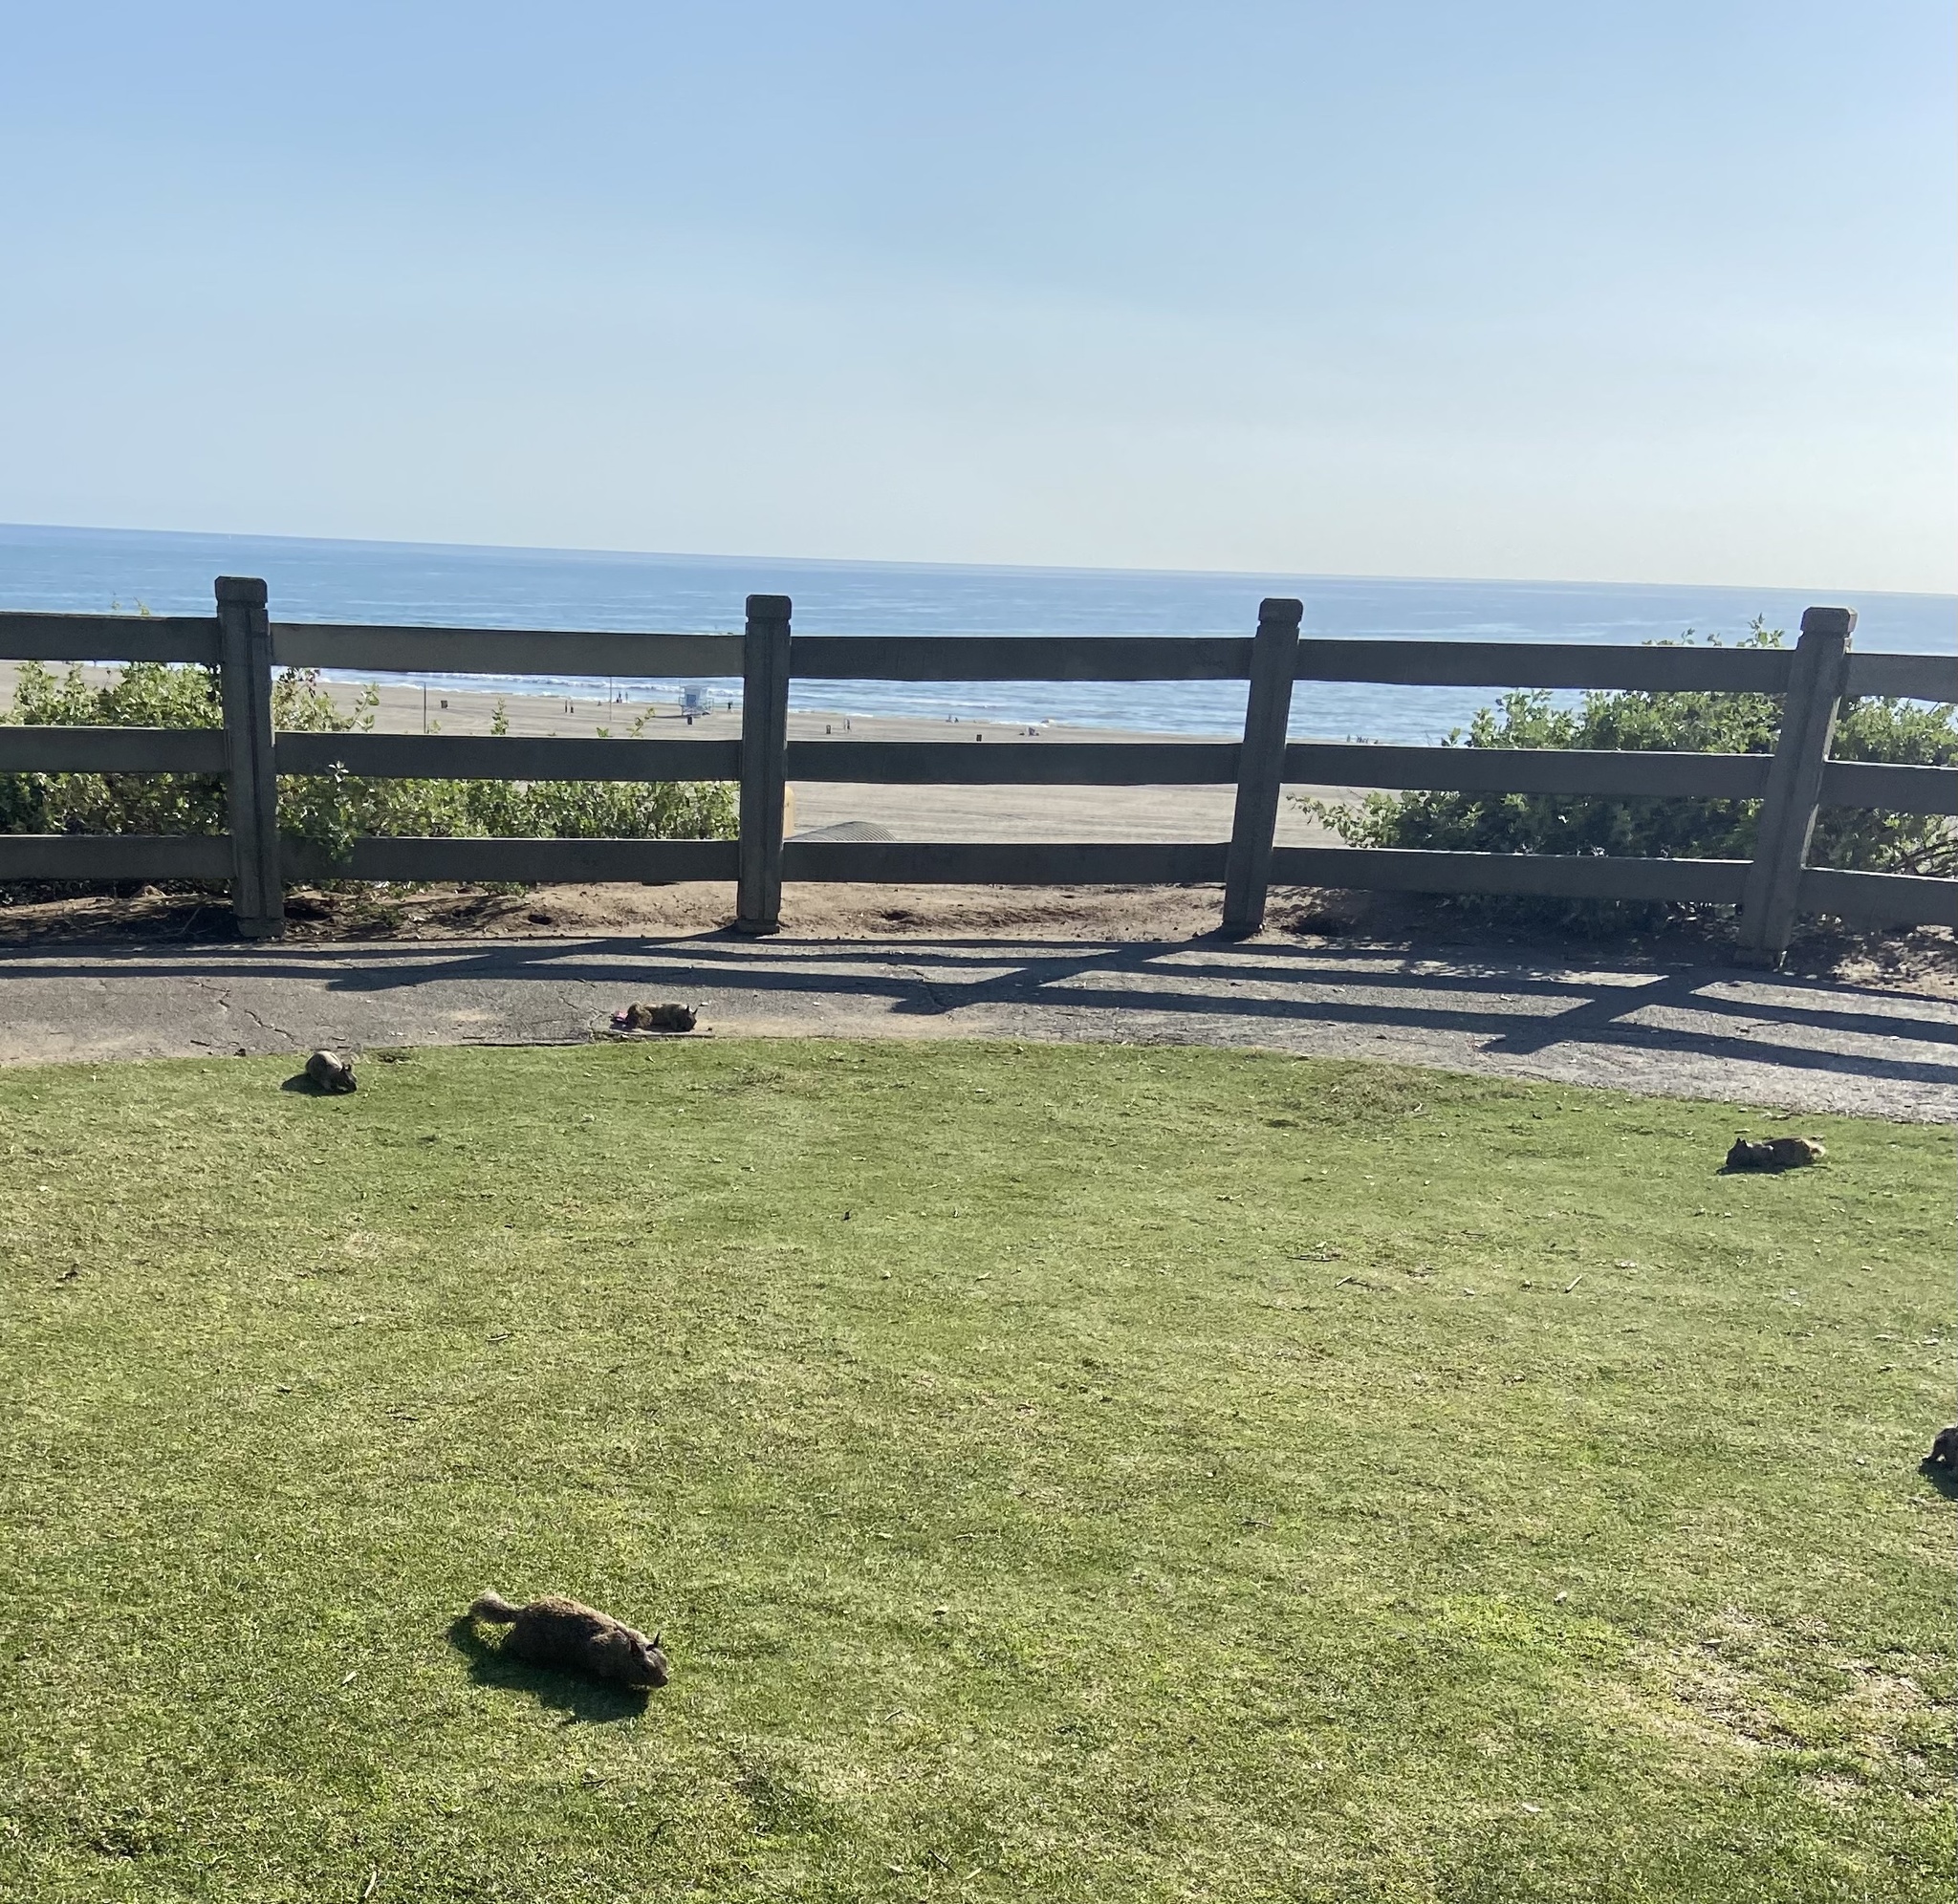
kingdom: Animalia
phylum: Chordata
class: Mammalia
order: Rodentia
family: Sciuridae
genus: Otospermophilus
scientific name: Otospermophilus beecheyi
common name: California ground squirrel
